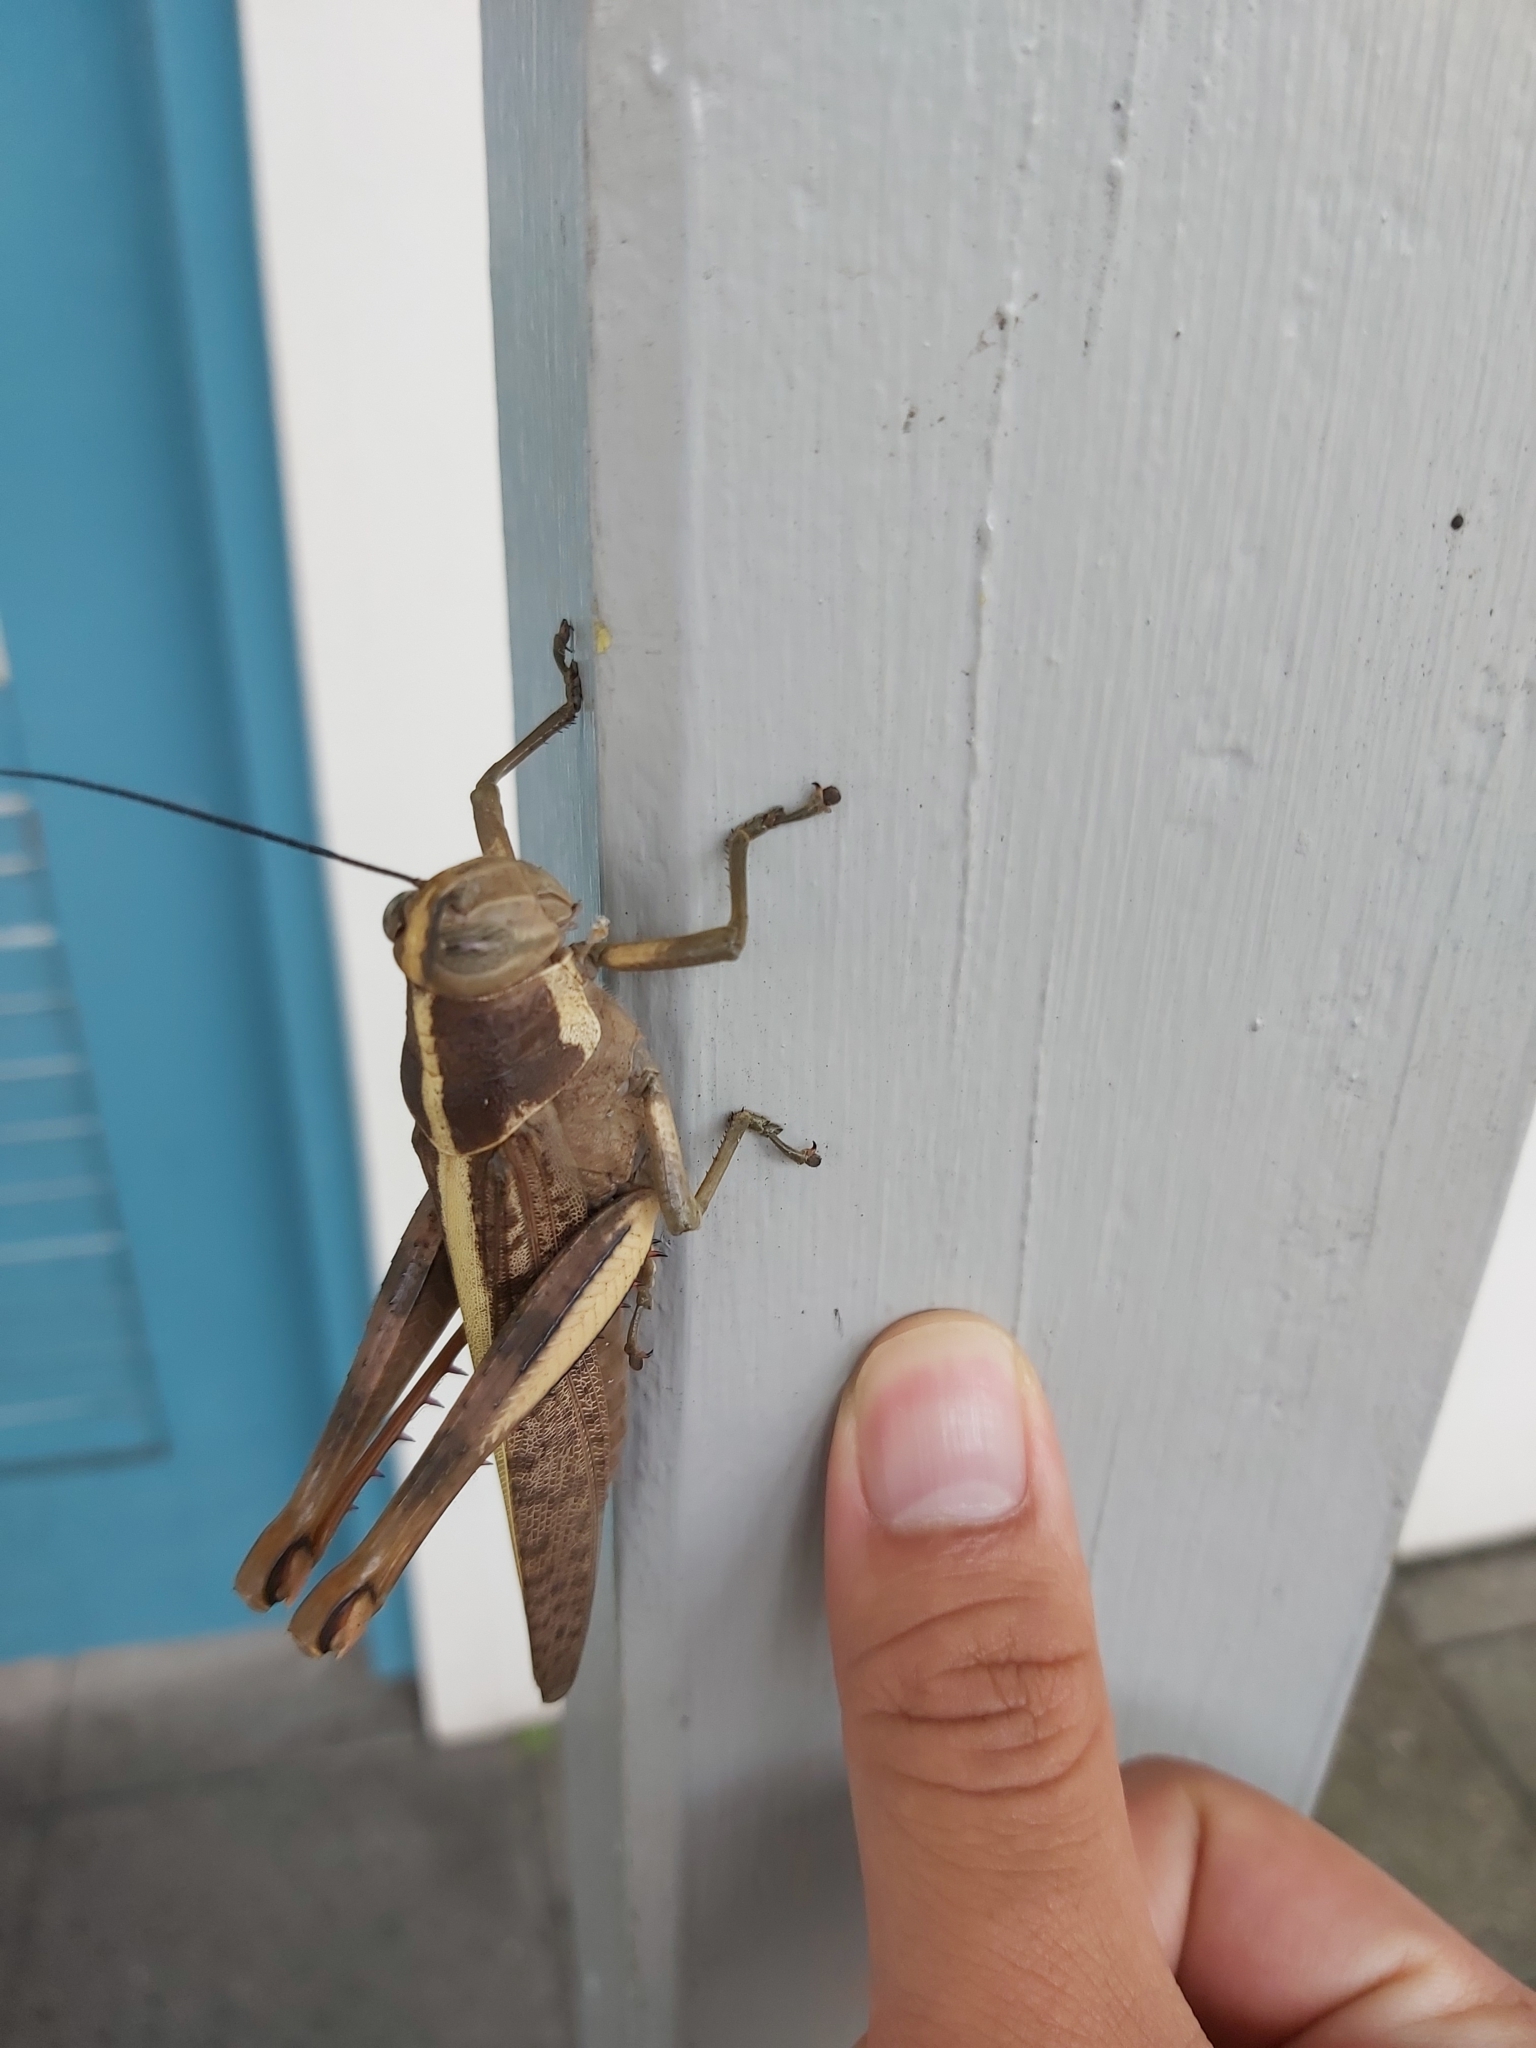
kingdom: Animalia
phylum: Arthropoda
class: Insecta
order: Orthoptera
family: Acrididae
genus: Valanga
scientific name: Valanga irregularis
